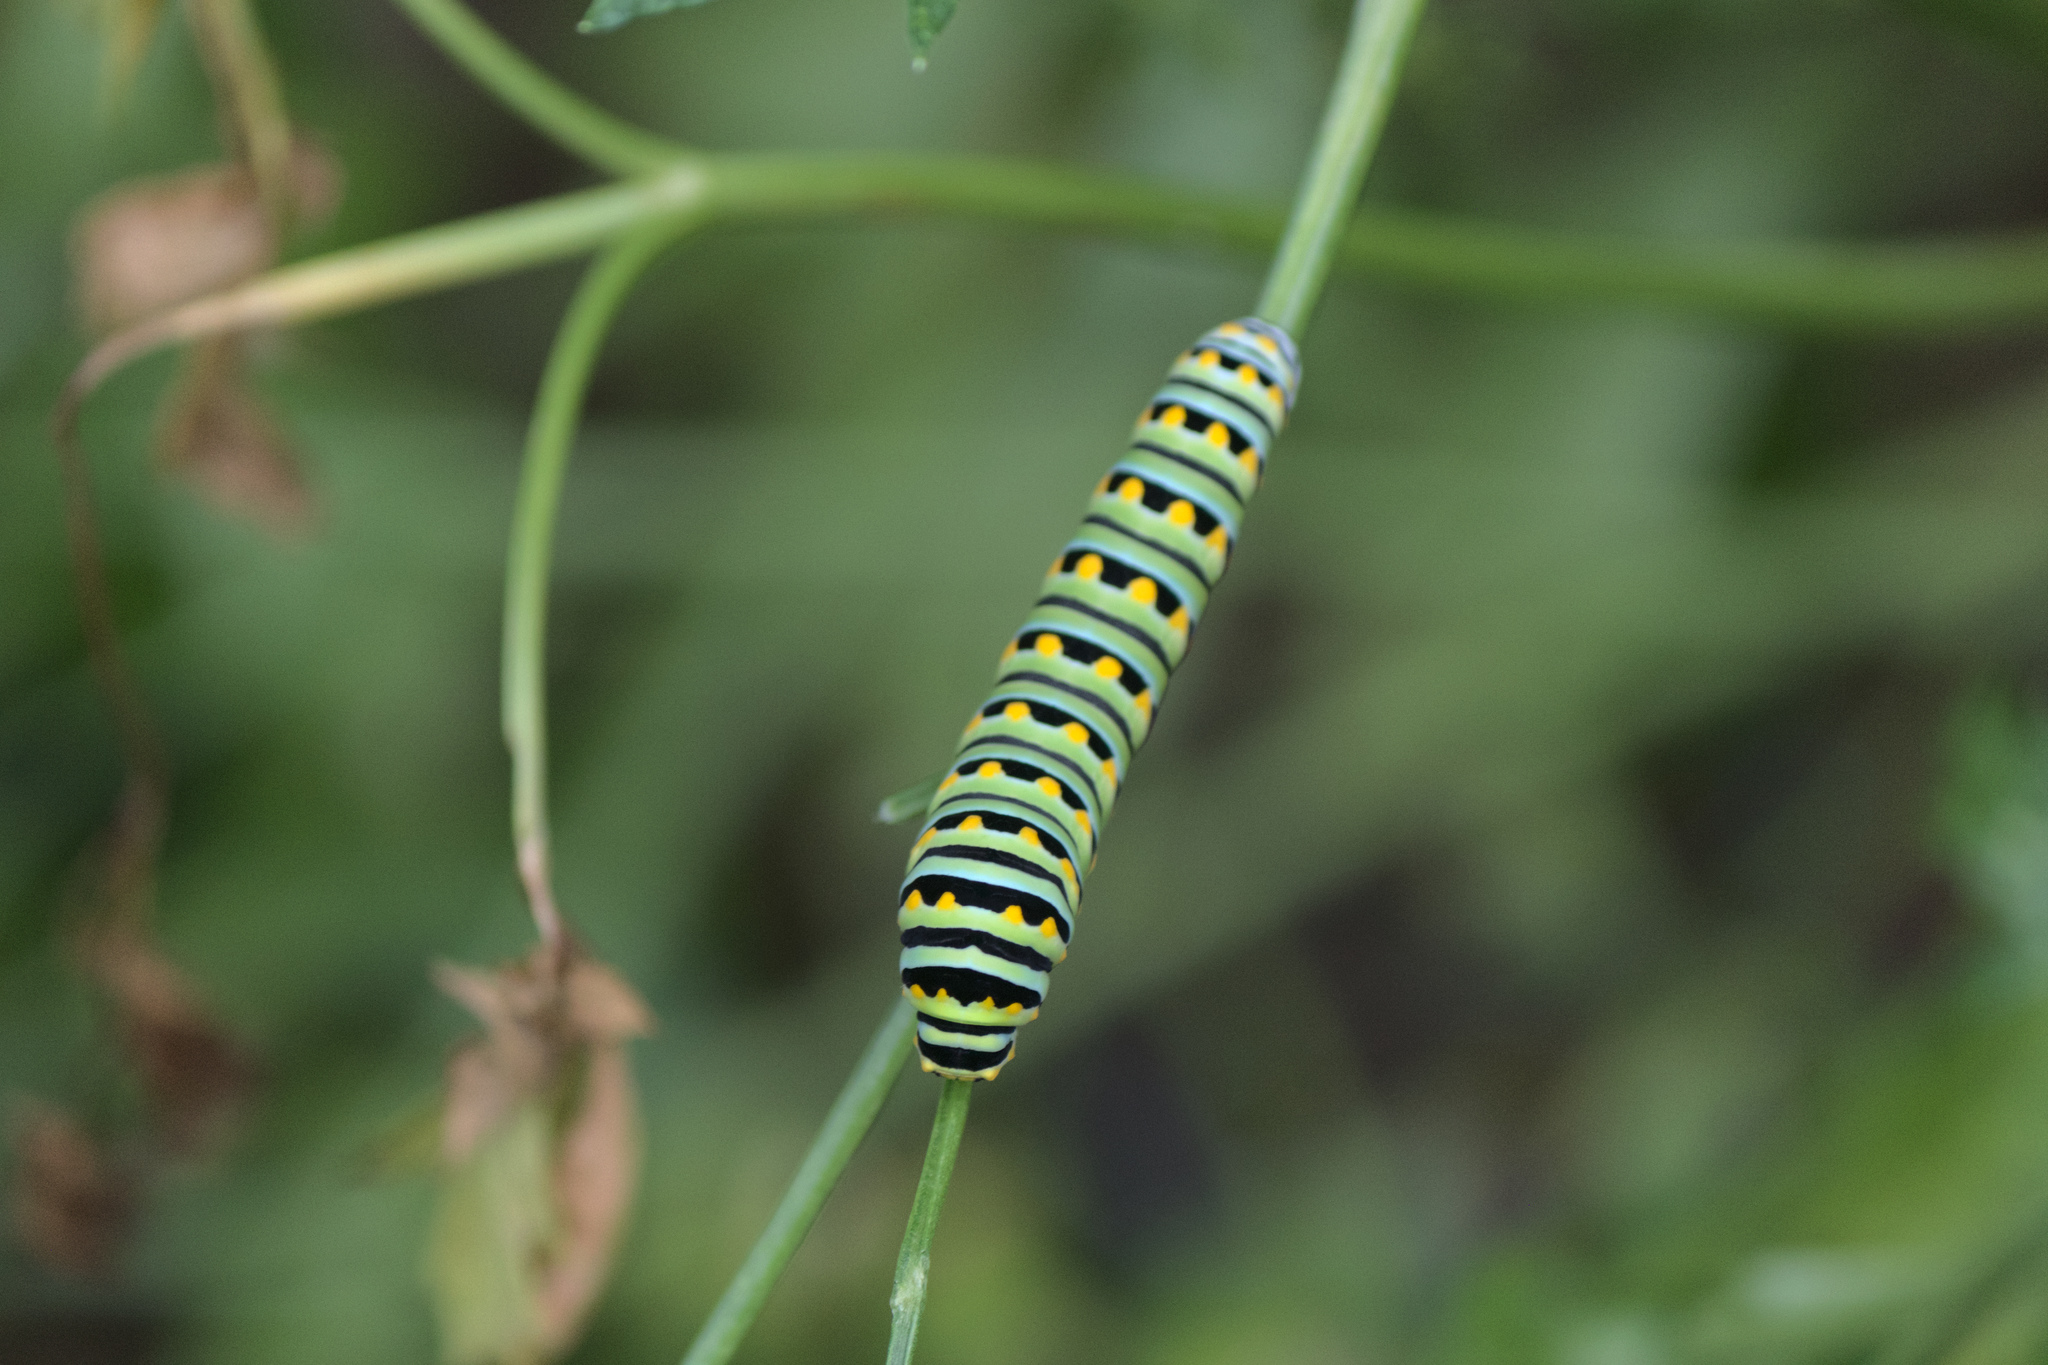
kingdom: Animalia
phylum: Arthropoda
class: Insecta
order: Lepidoptera
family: Papilionidae
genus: Papilio
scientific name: Papilio polyxenes
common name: Black swallowtail
